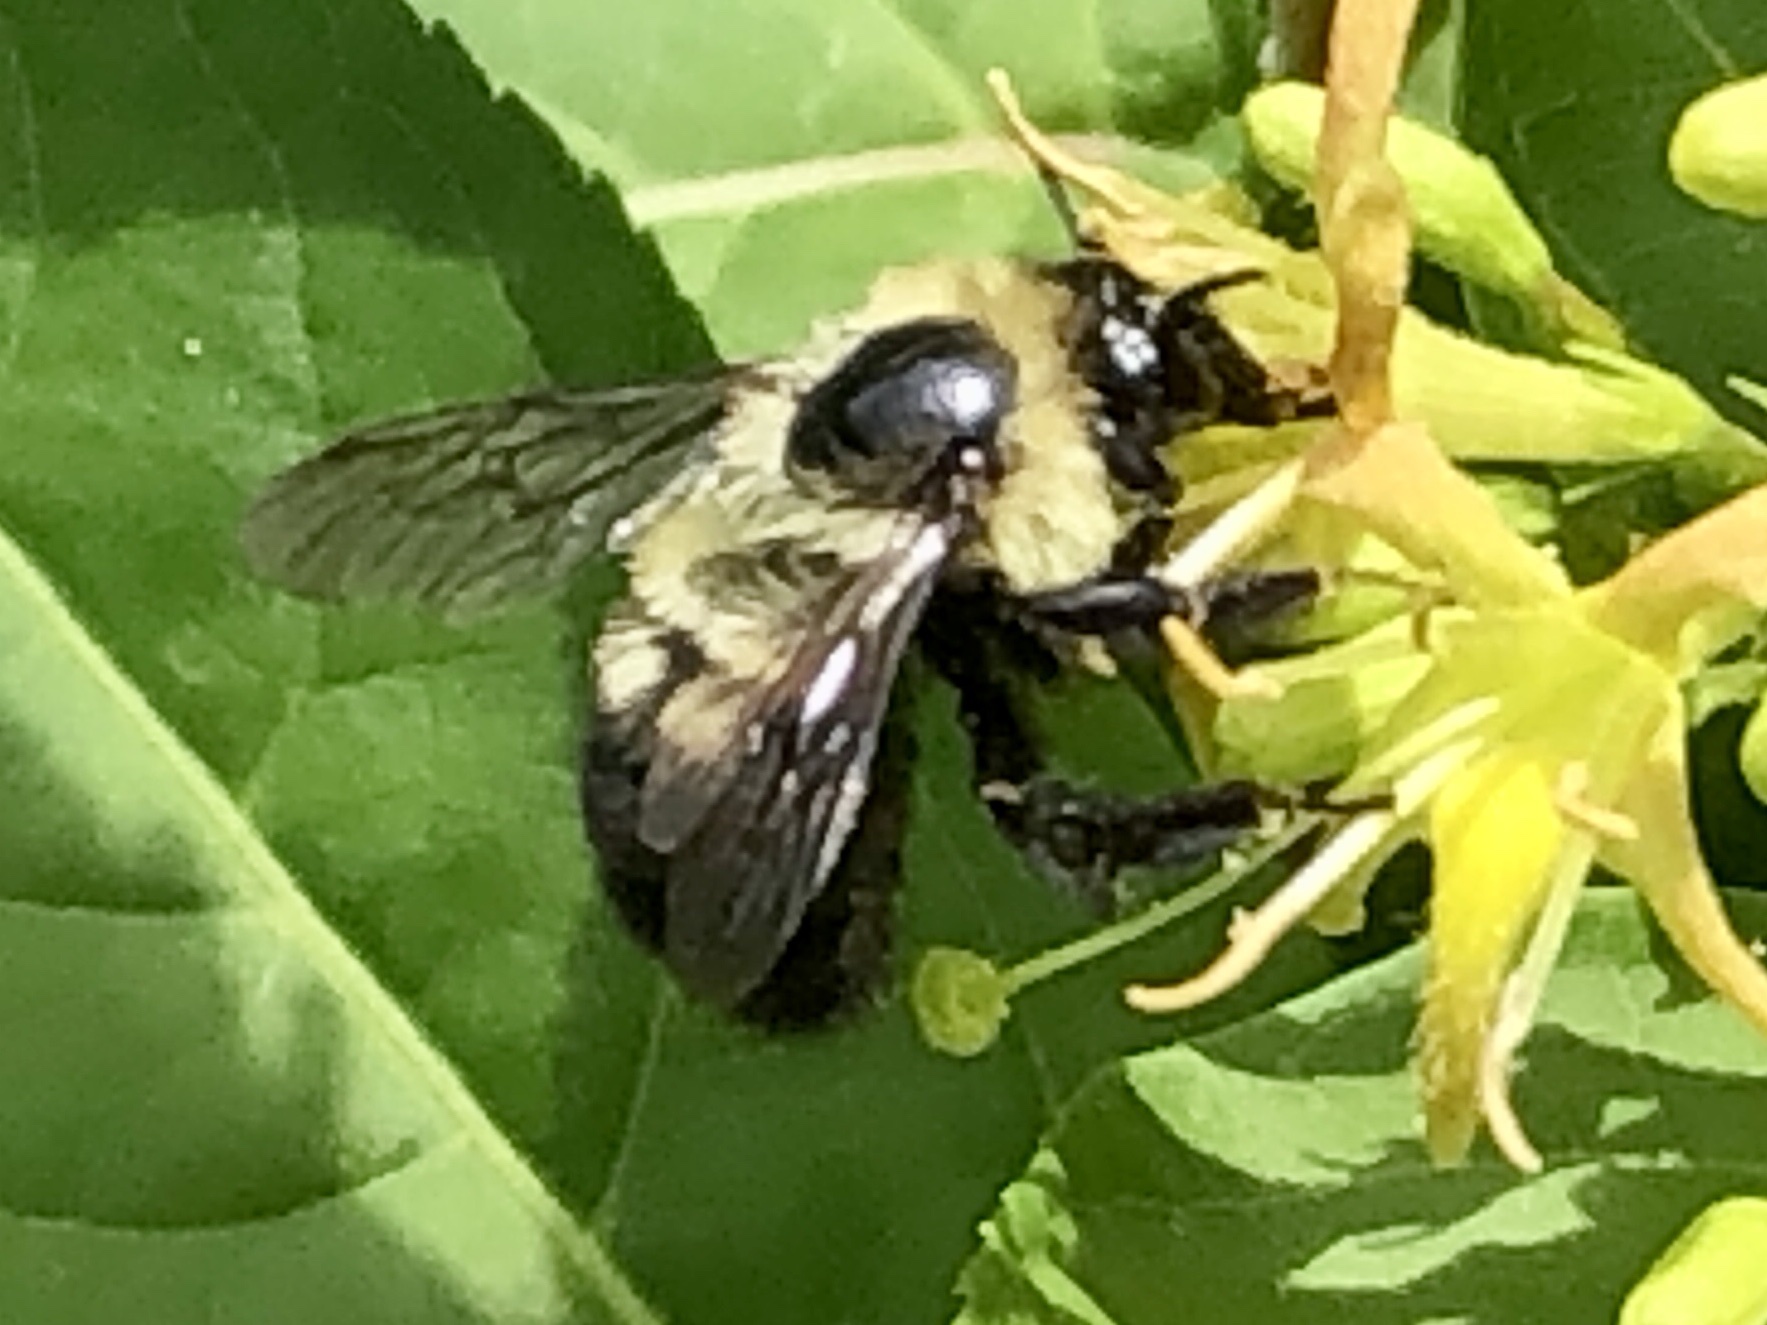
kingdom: Animalia
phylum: Arthropoda
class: Insecta
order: Hymenoptera
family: Apidae
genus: Bombus
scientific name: Bombus bimaculatus
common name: Two-spotted bumble bee
